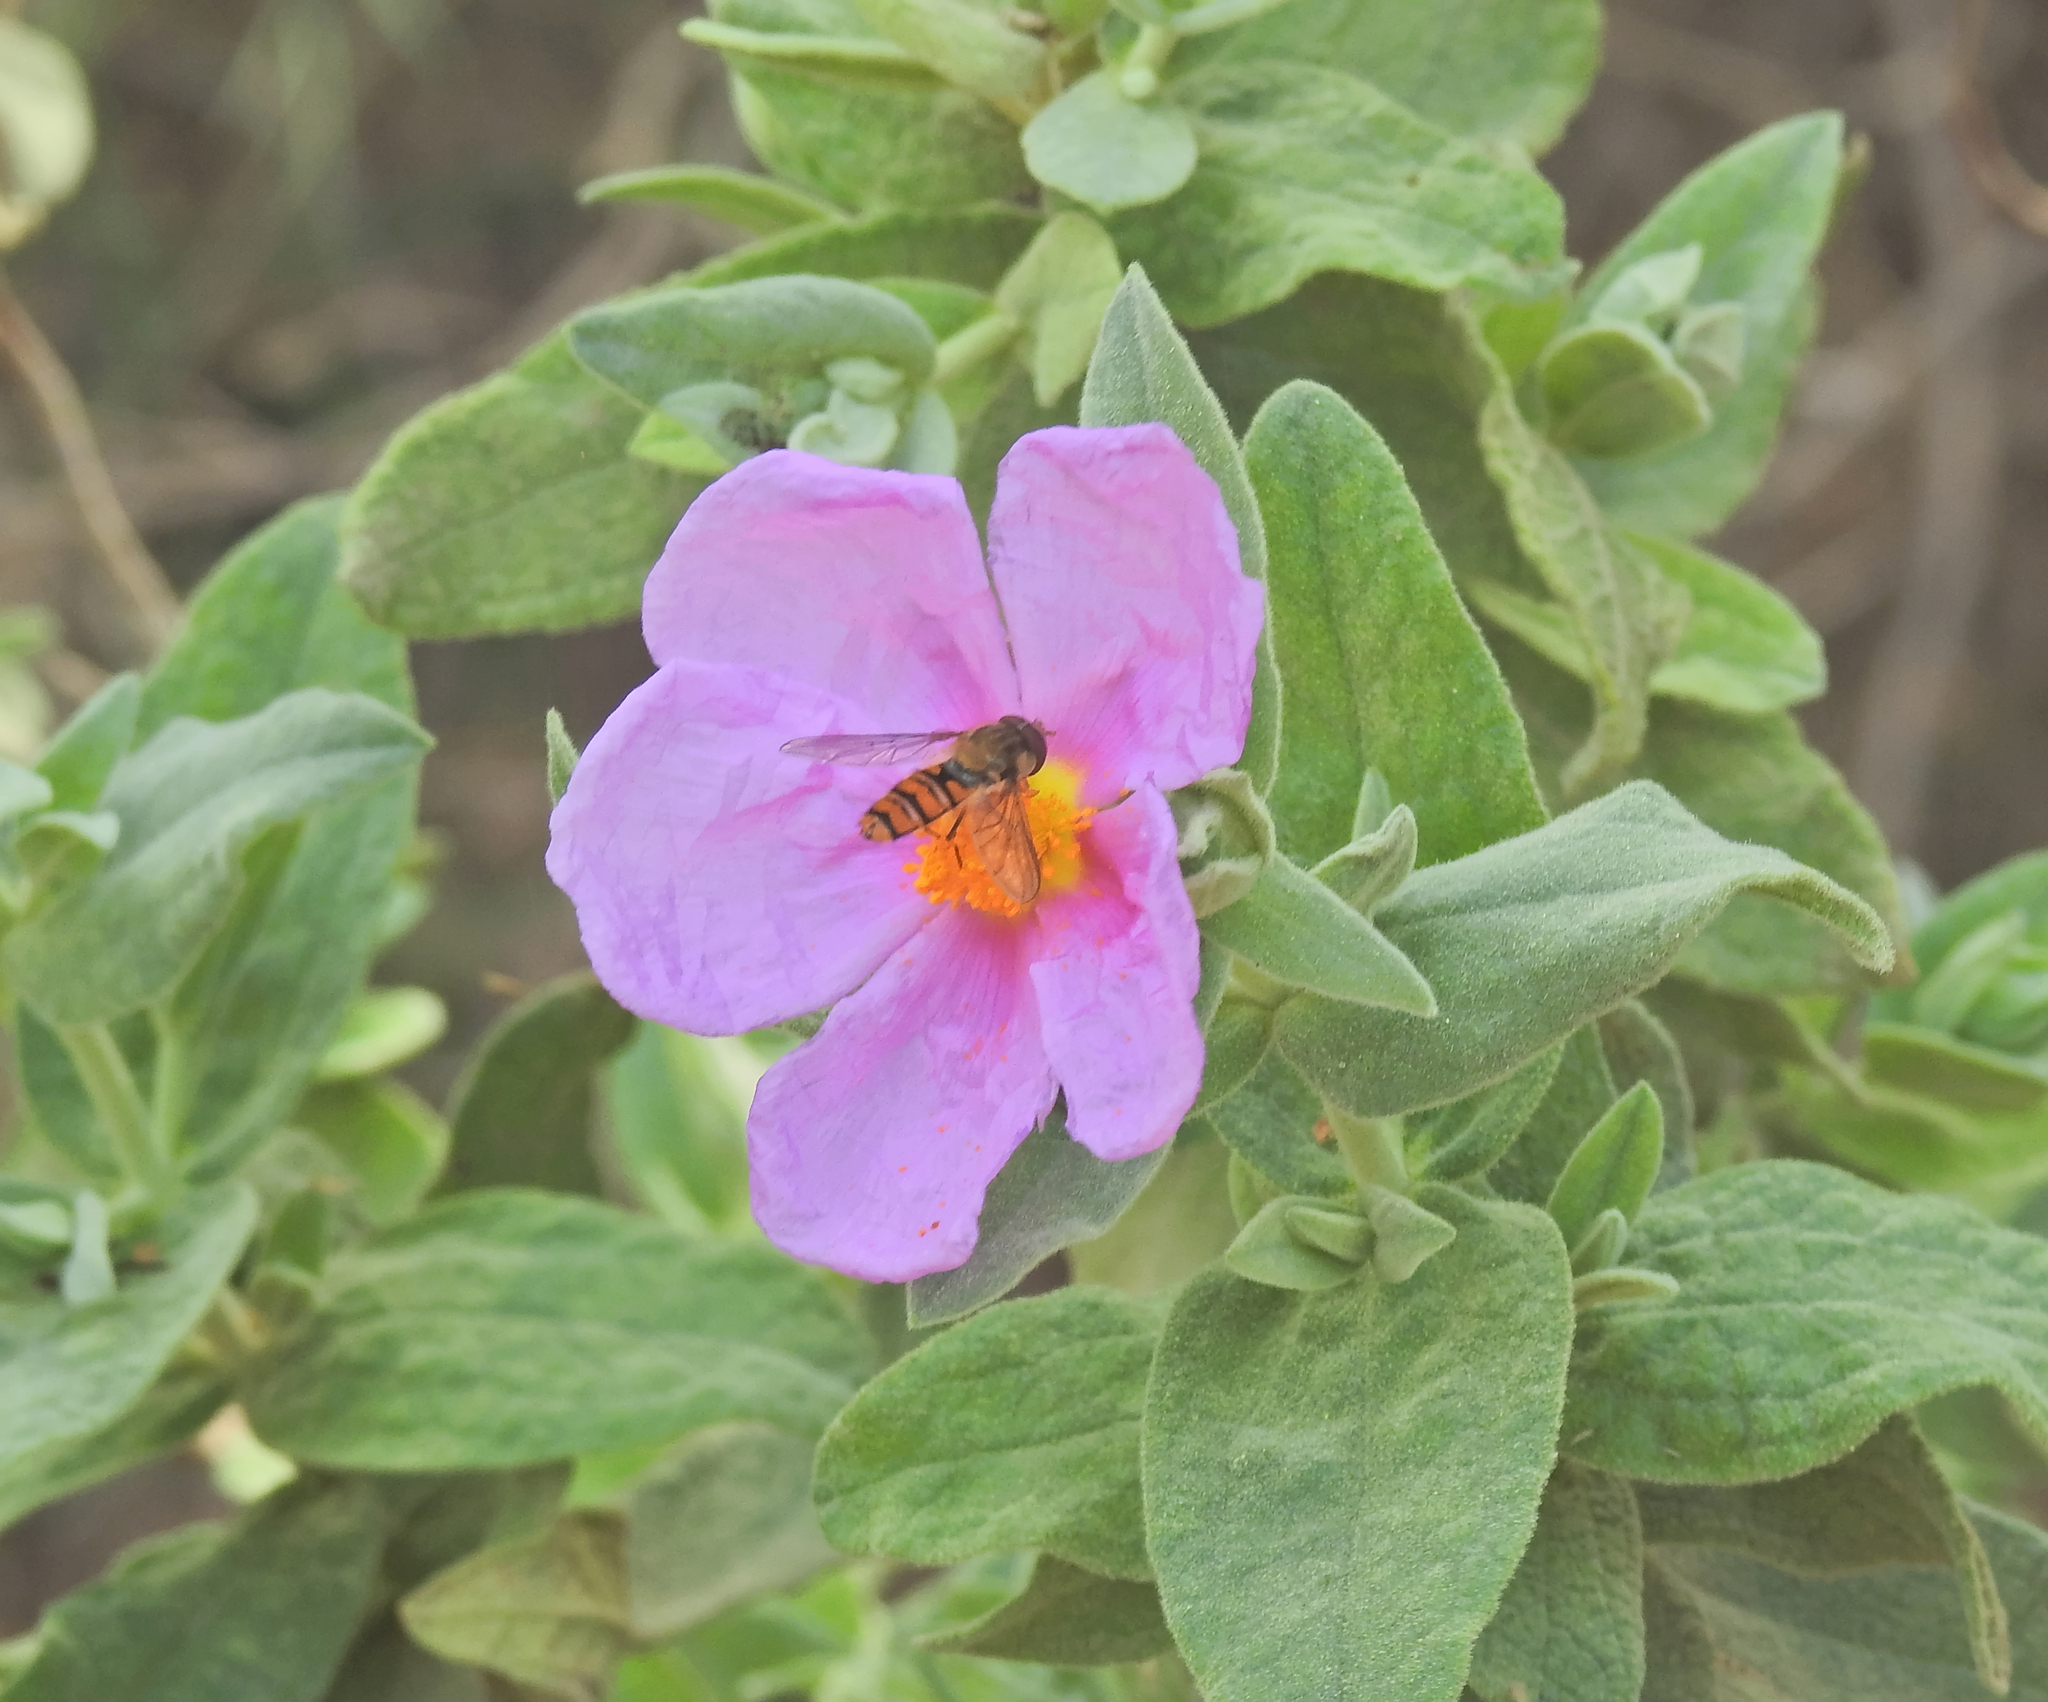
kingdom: Animalia
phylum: Arthropoda
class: Insecta
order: Diptera
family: Syrphidae
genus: Episyrphus
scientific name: Episyrphus balteatus
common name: Marmalade hoverfly
